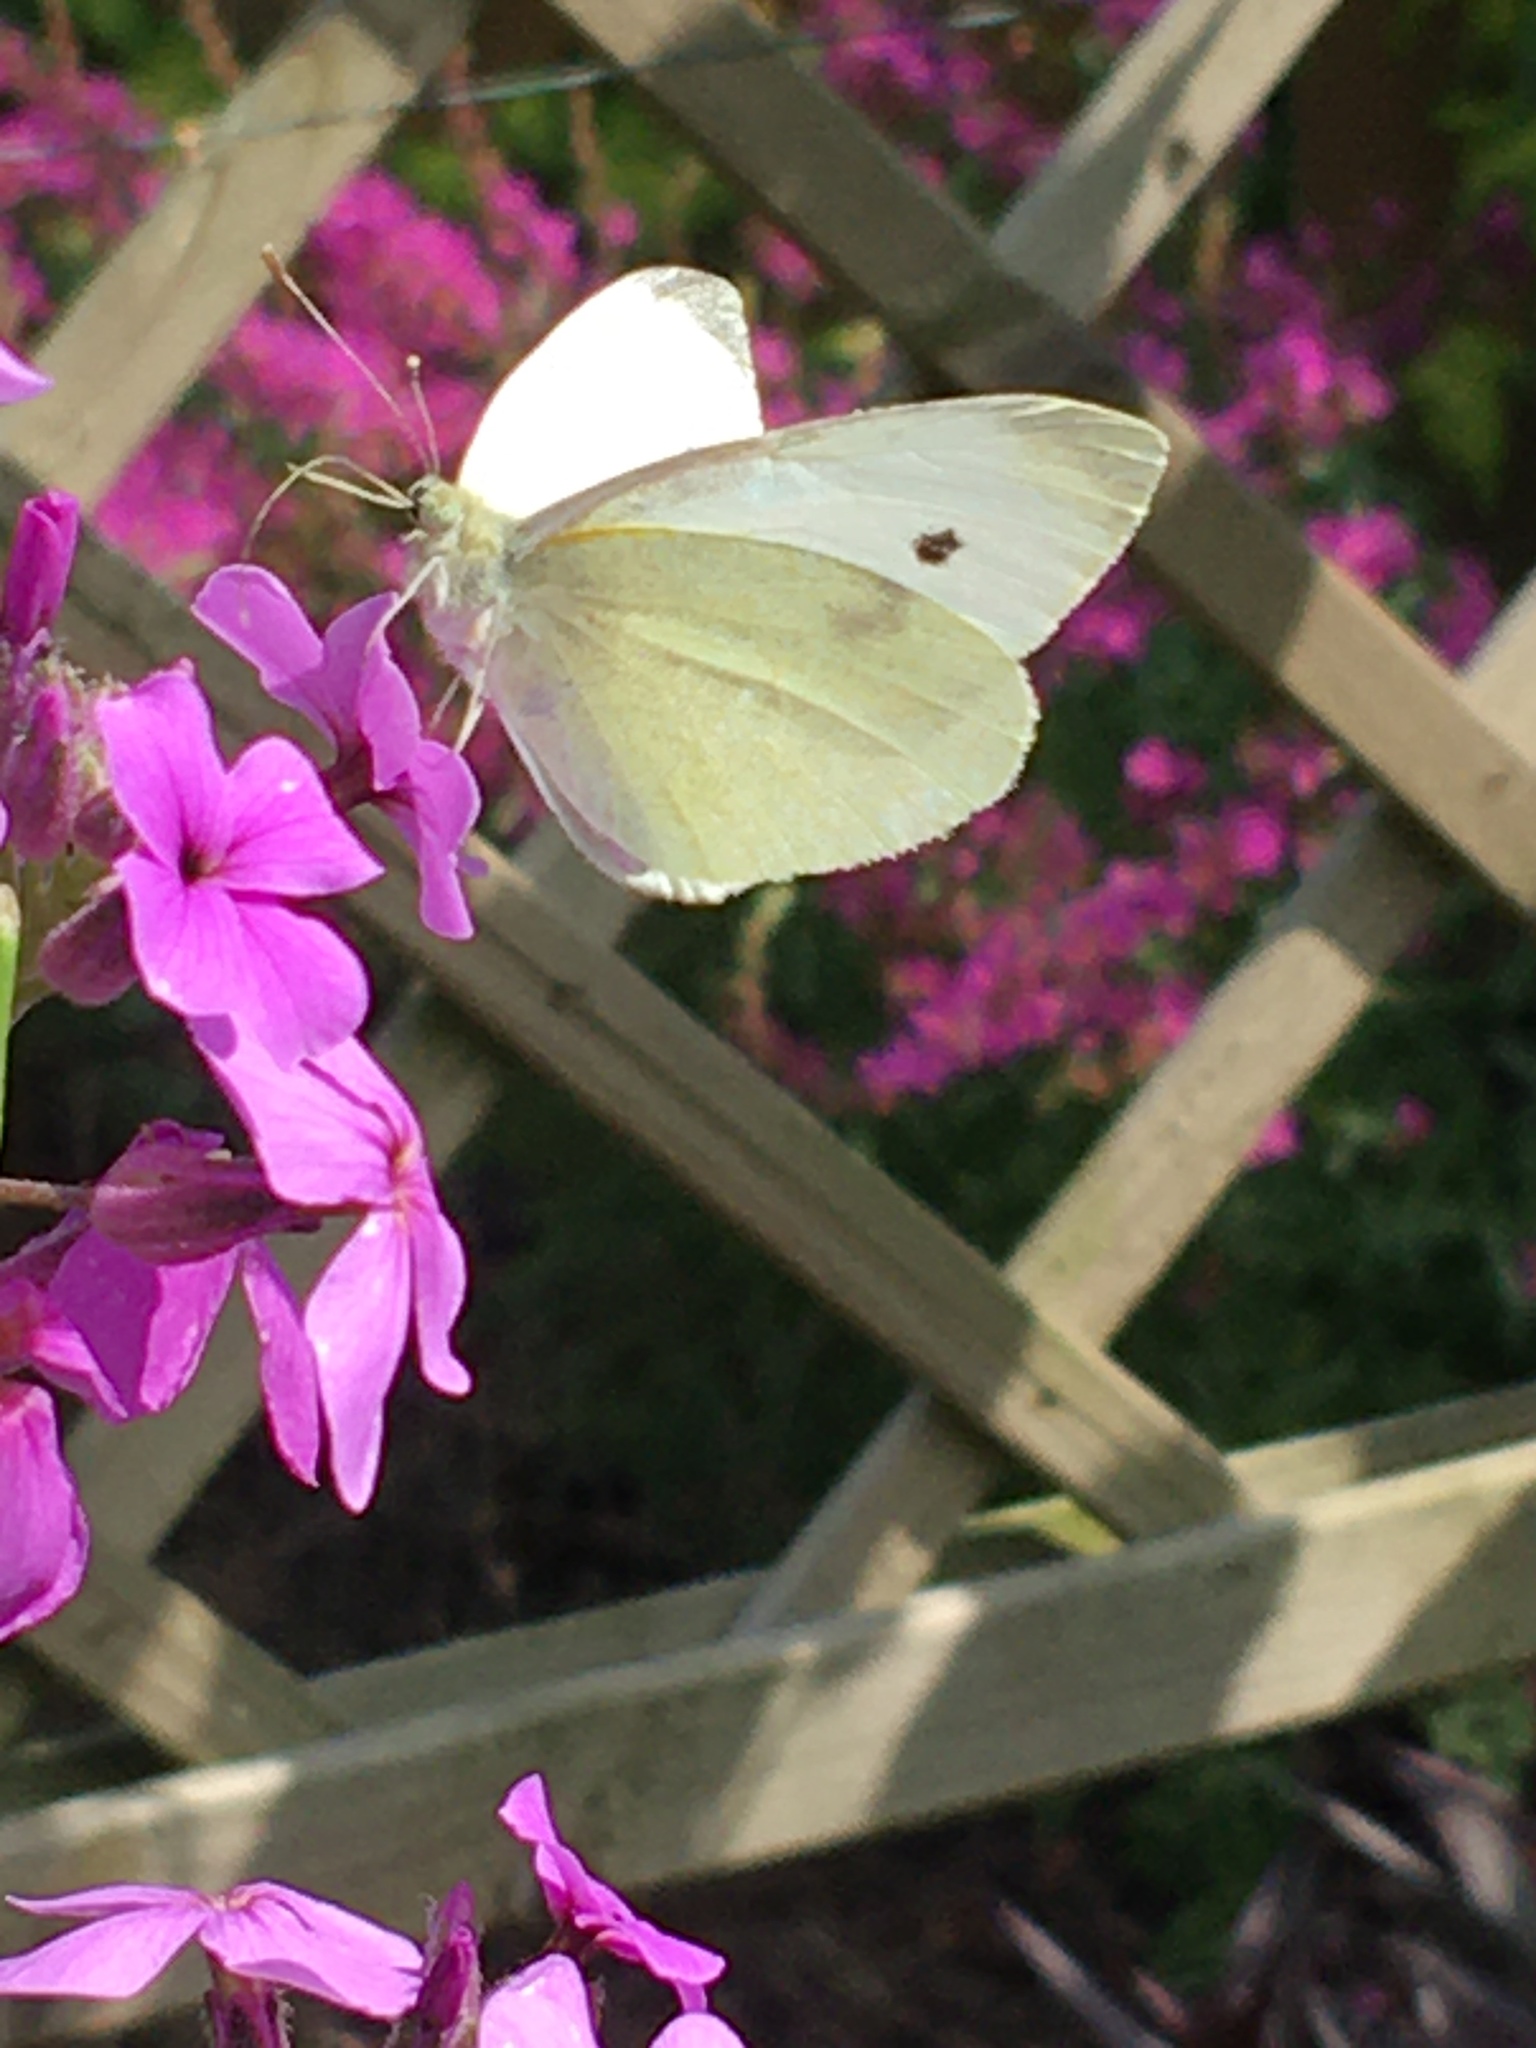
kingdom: Animalia
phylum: Arthropoda
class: Insecta
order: Lepidoptera
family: Pieridae
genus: Pieris
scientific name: Pieris rapae
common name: Small white
